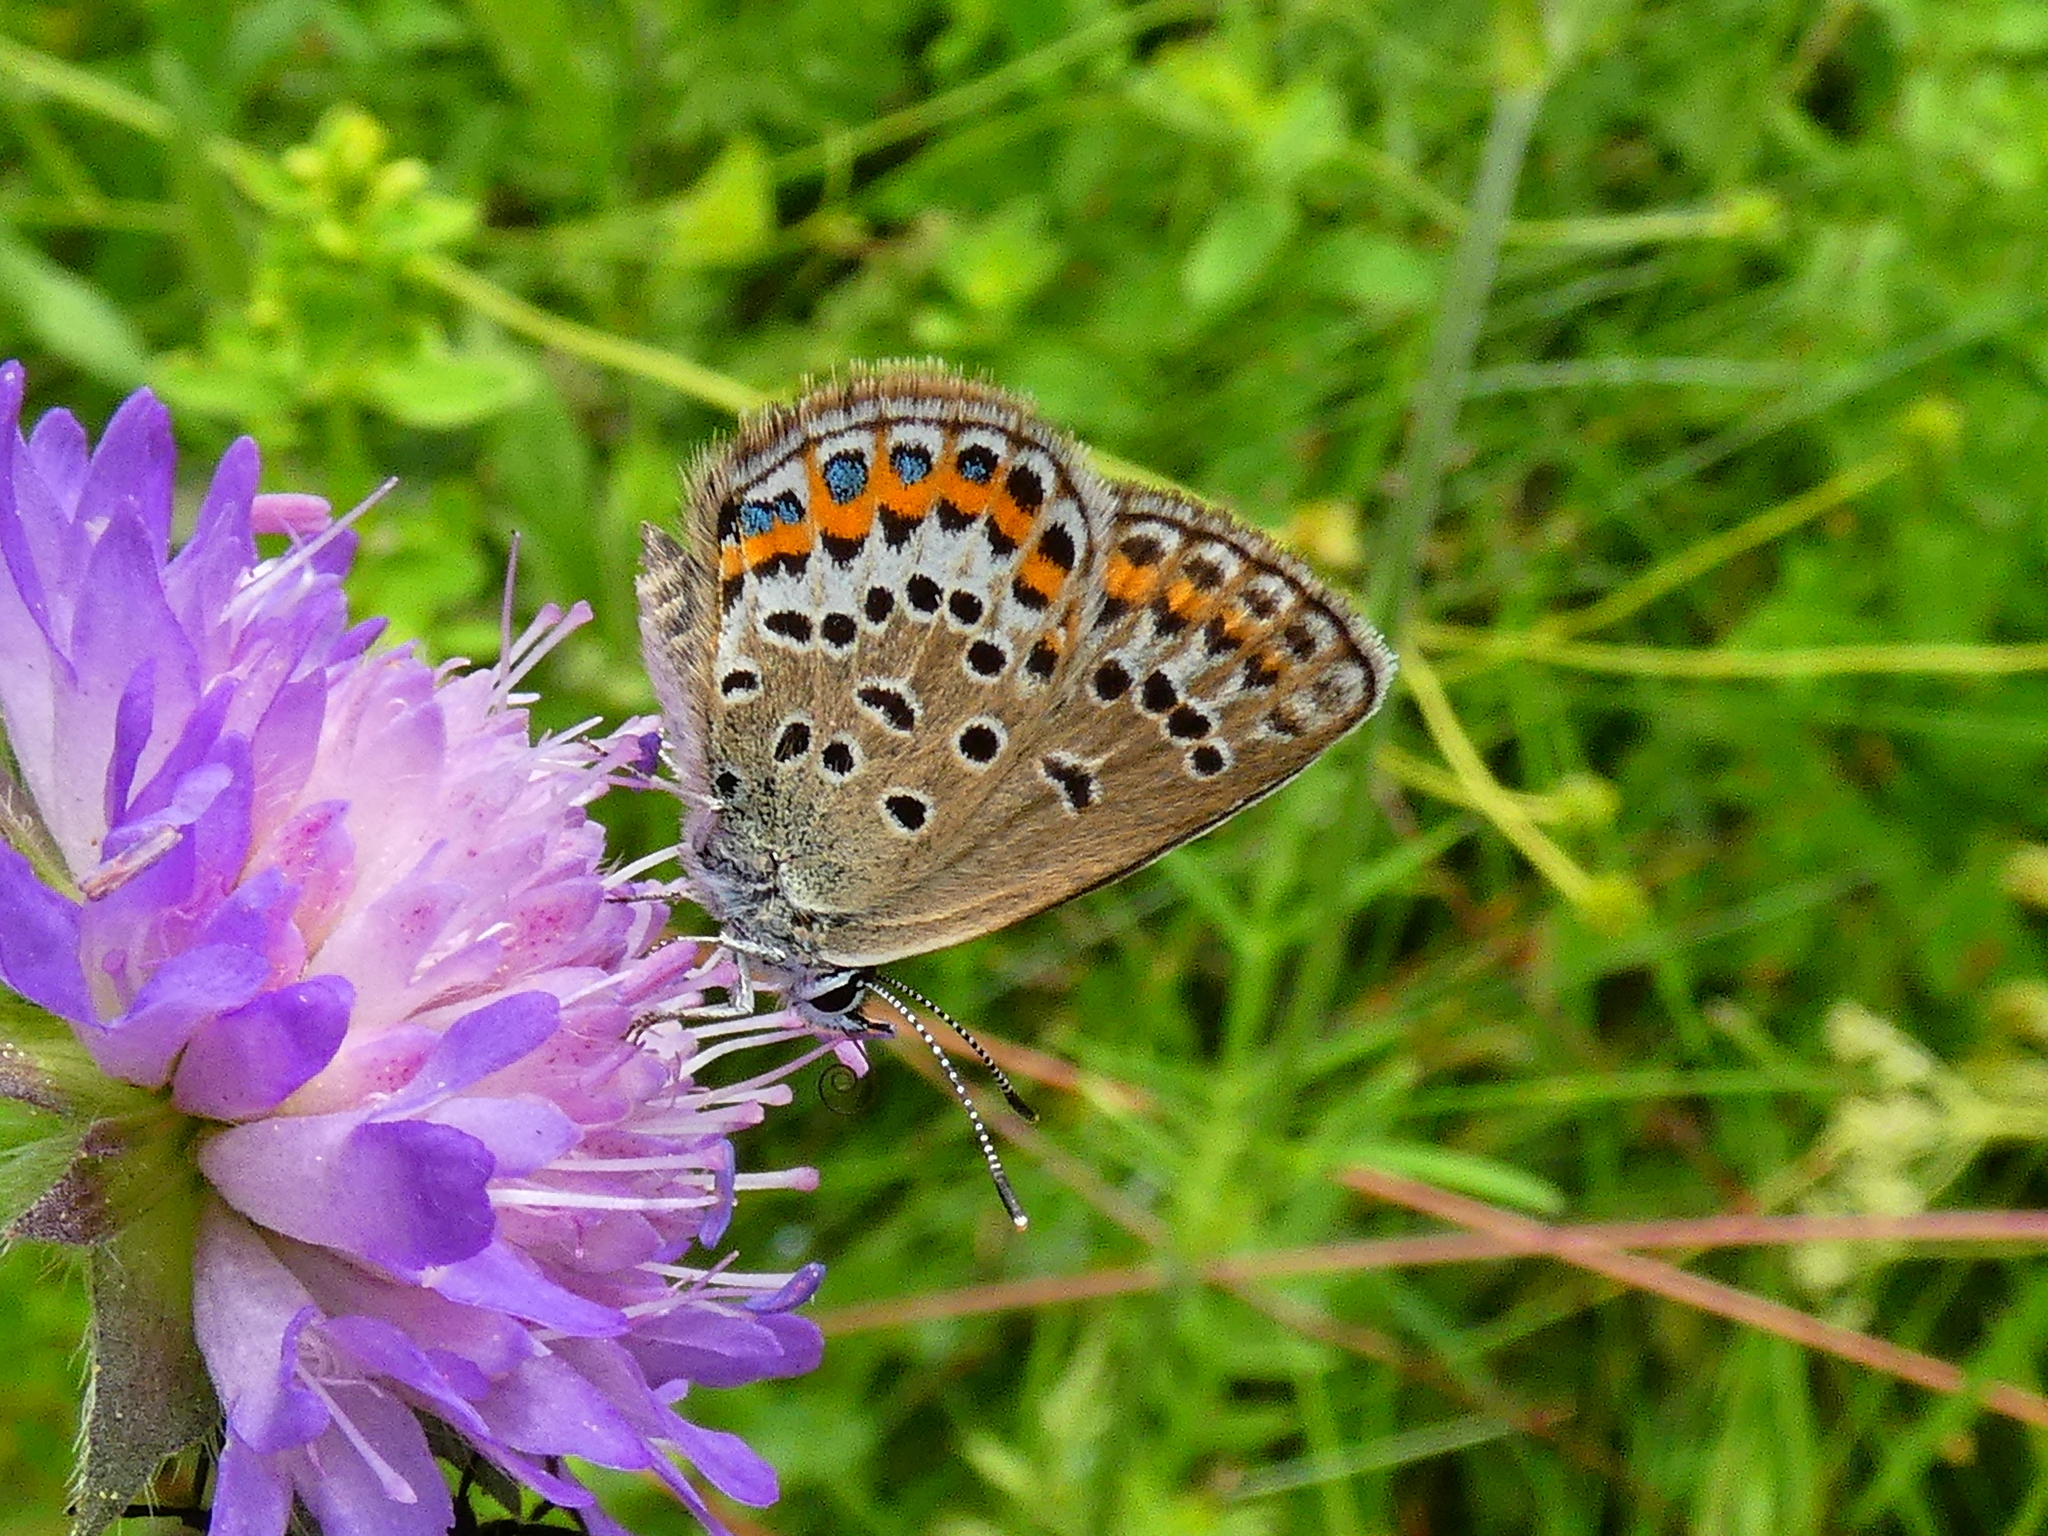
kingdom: Animalia
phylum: Arthropoda
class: Insecta
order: Lepidoptera
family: Lycaenidae
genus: Plebejus
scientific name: Plebejus argus
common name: Silver-studded blue
